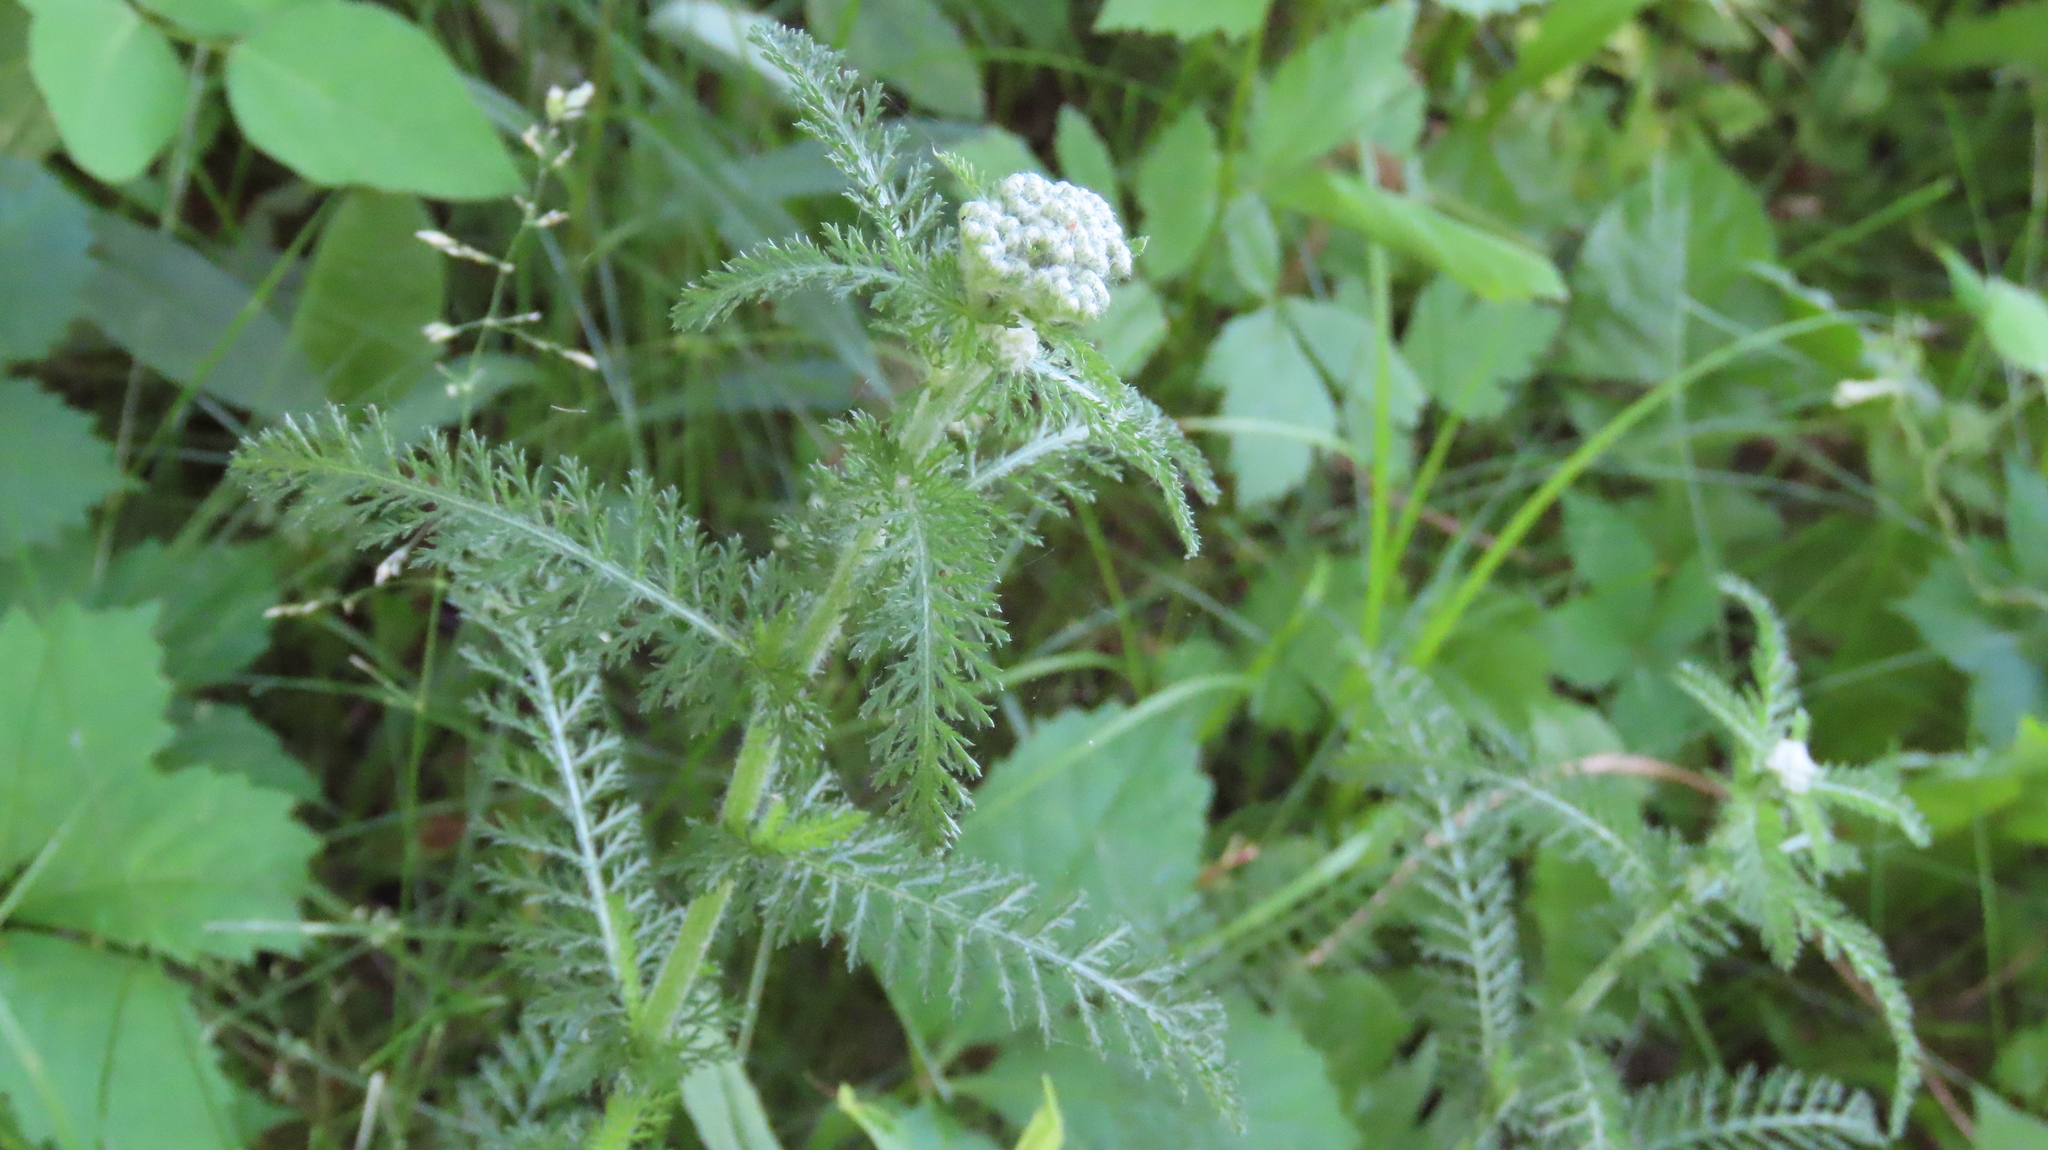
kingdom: Plantae
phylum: Tracheophyta
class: Magnoliopsida
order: Asterales
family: Asteraceae
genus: Achillea
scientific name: Achillea millefolium
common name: Yarrow
